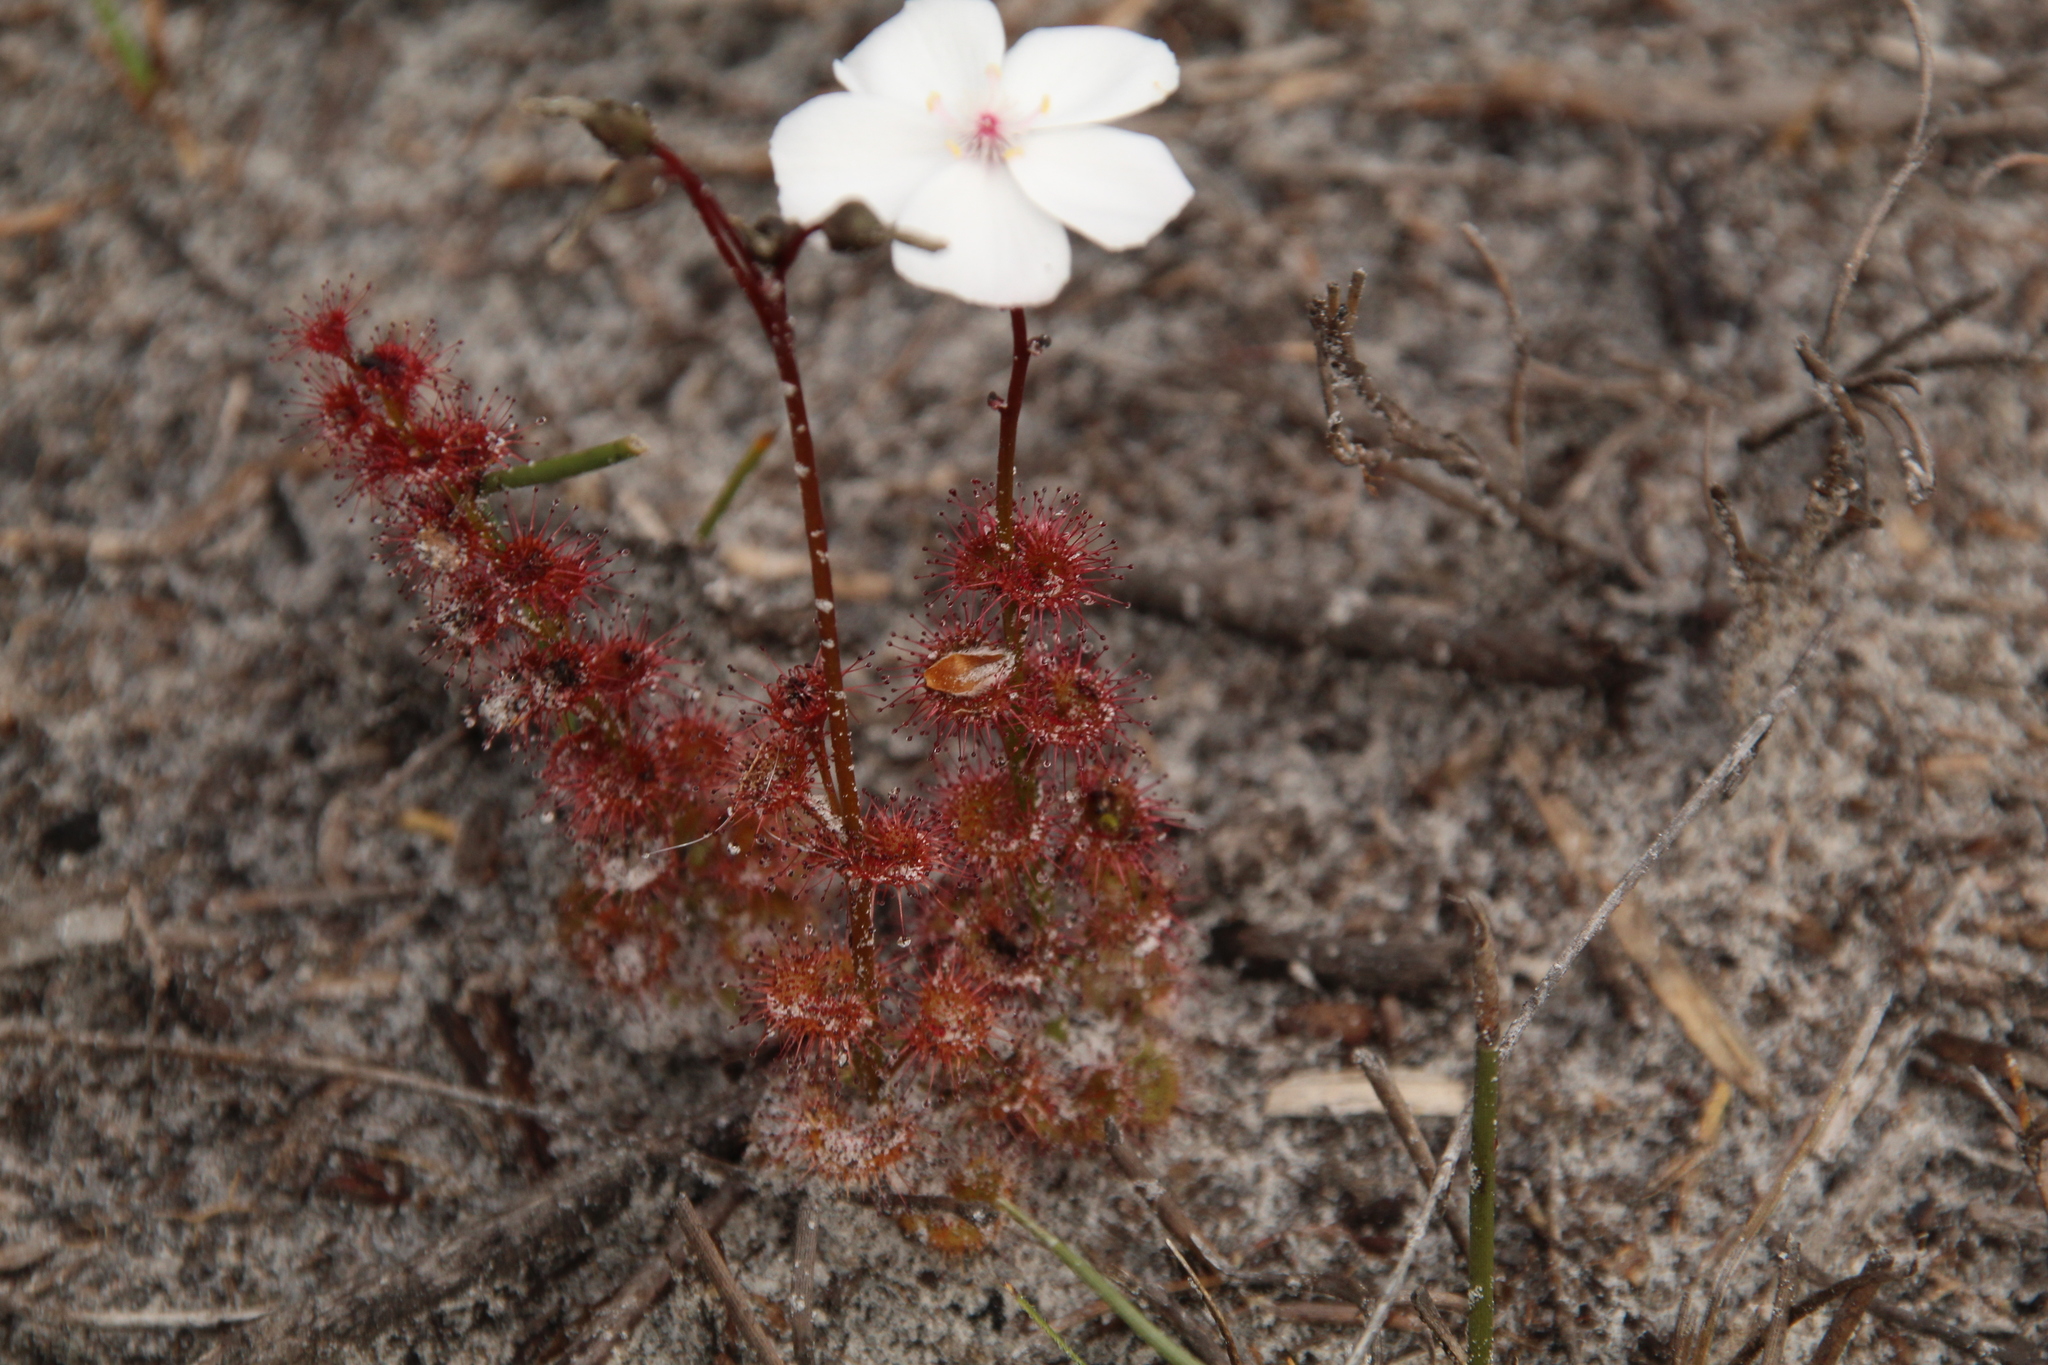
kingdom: Plantae
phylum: Tracheophyta
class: Magnoliopsida
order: Caryophyllales
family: Droseraceae
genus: Drosera
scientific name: Drosera platypoda
